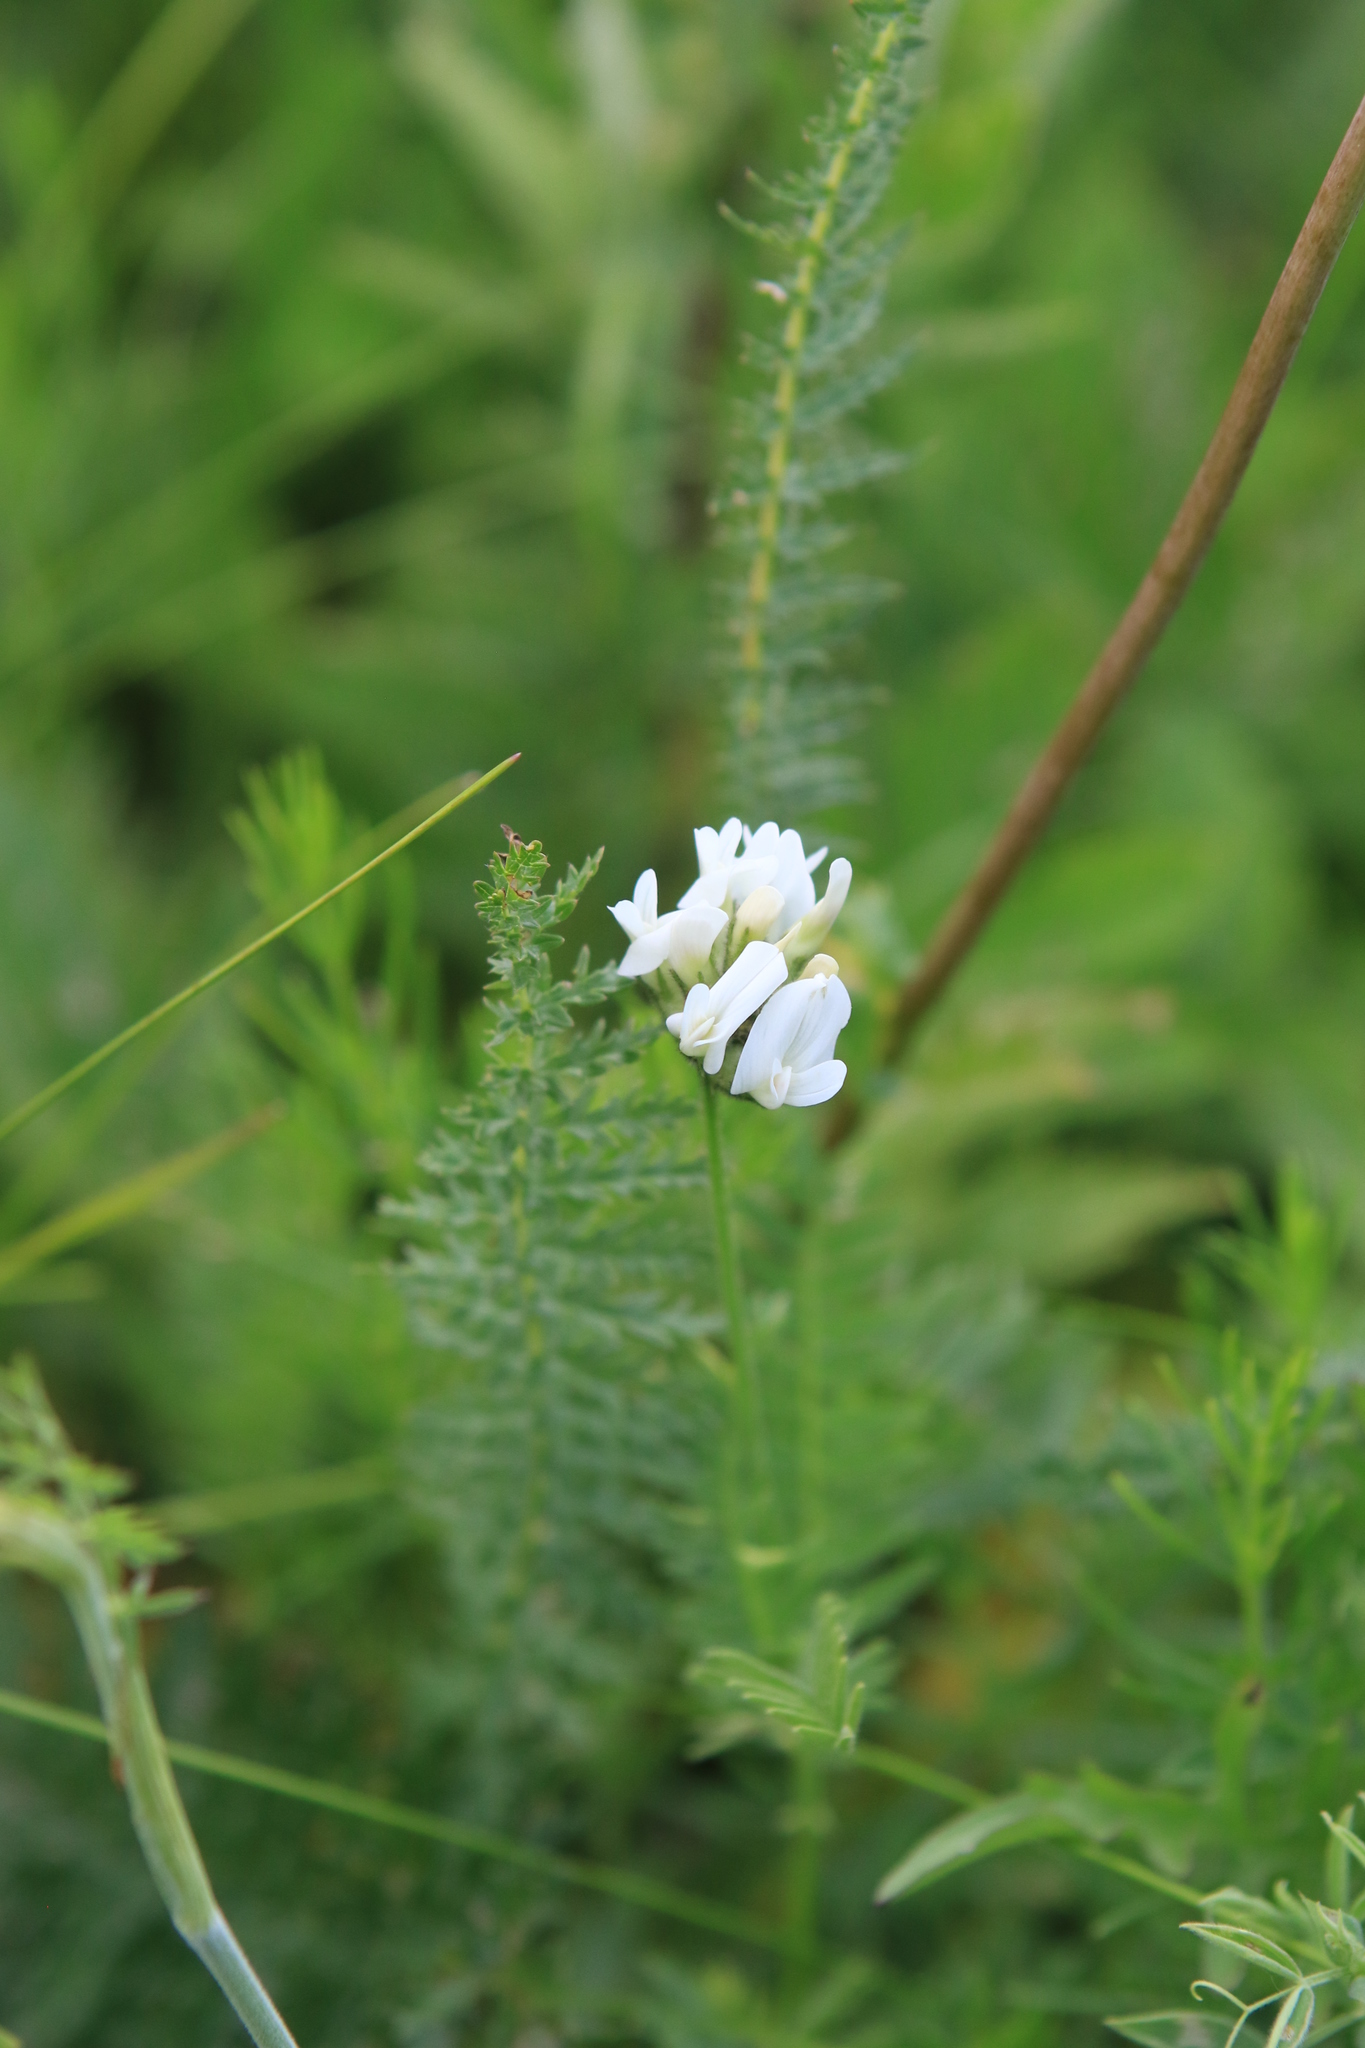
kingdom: Plantae
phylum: Tracheophyta
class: Magnoliopsida
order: Fabales
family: Fabaceae
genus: Astragalus
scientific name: Astragalus danicus
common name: Purple milk-vetch
